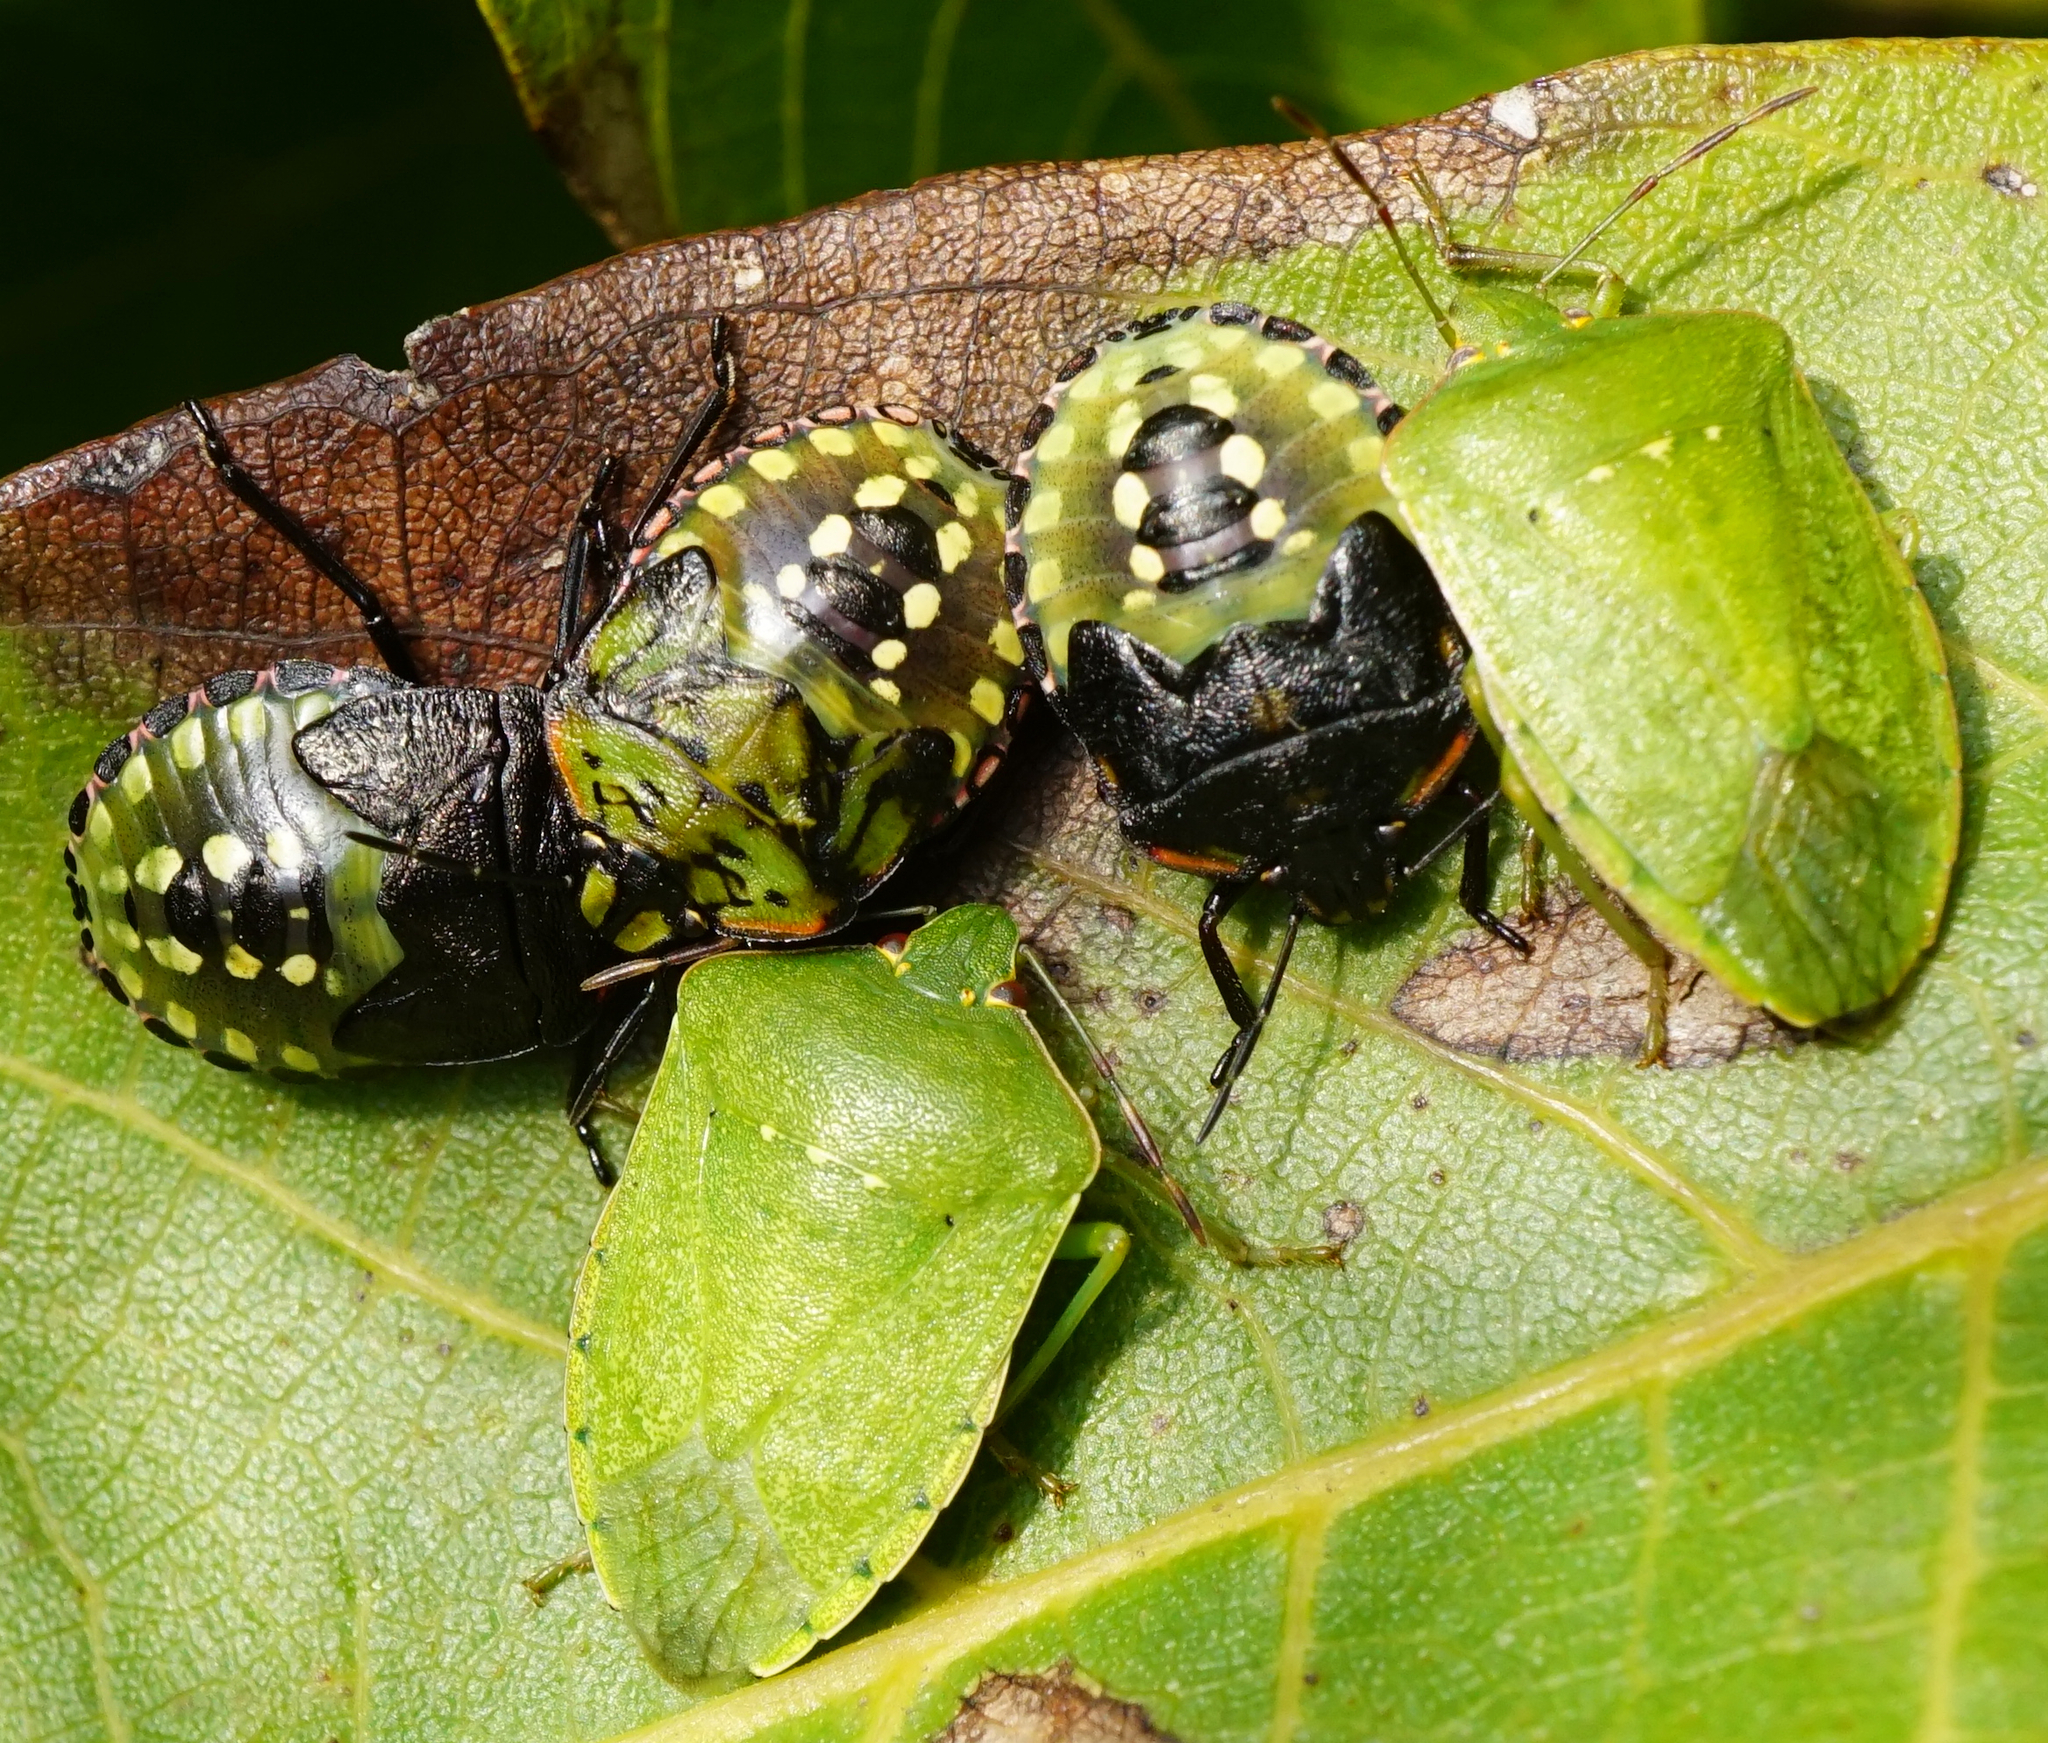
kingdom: Animalia
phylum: Arthropoda
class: Insecta
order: Hemiptera
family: Pentatomidae
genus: Nezara
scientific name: Nezara viridula
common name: Southern green stink bug
